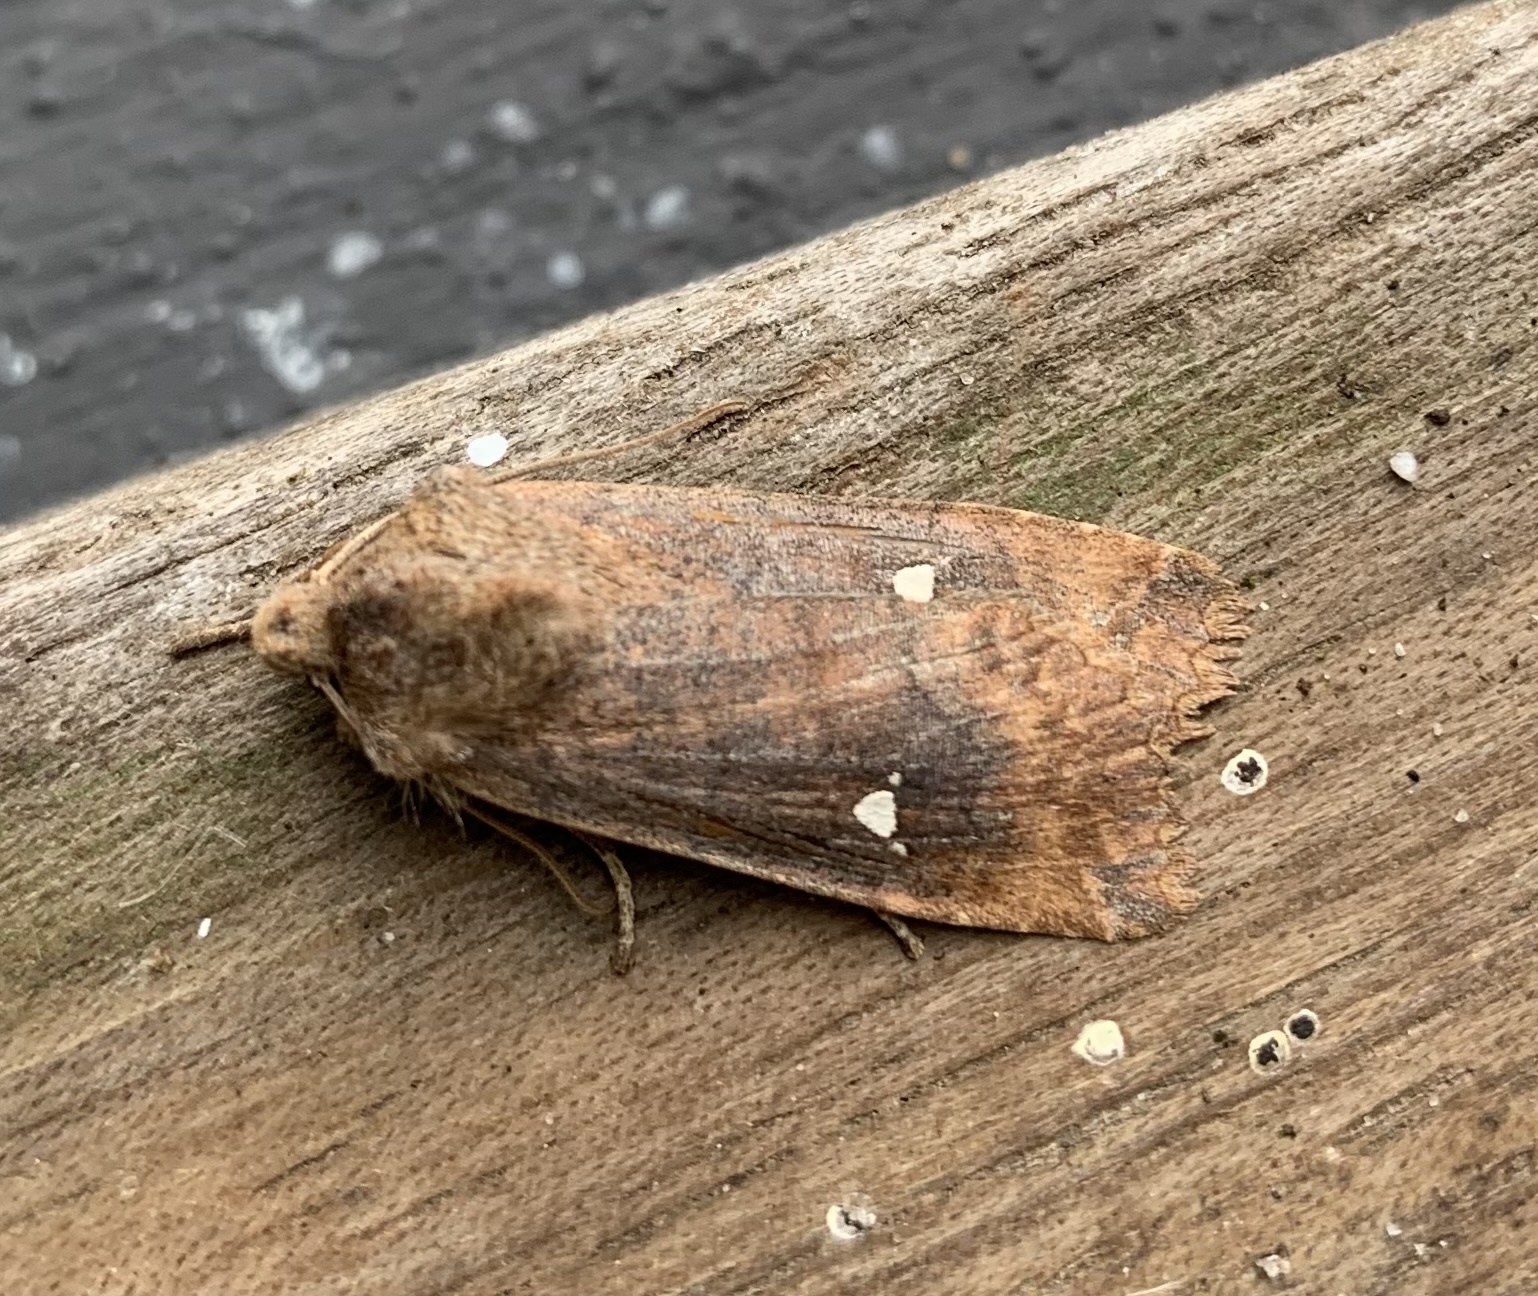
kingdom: Animalia
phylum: Arthropoda
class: Insecta
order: Lepidoptera
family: Noctuidae
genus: Eupsilia
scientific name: Eupsilia transversa
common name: Satellite
